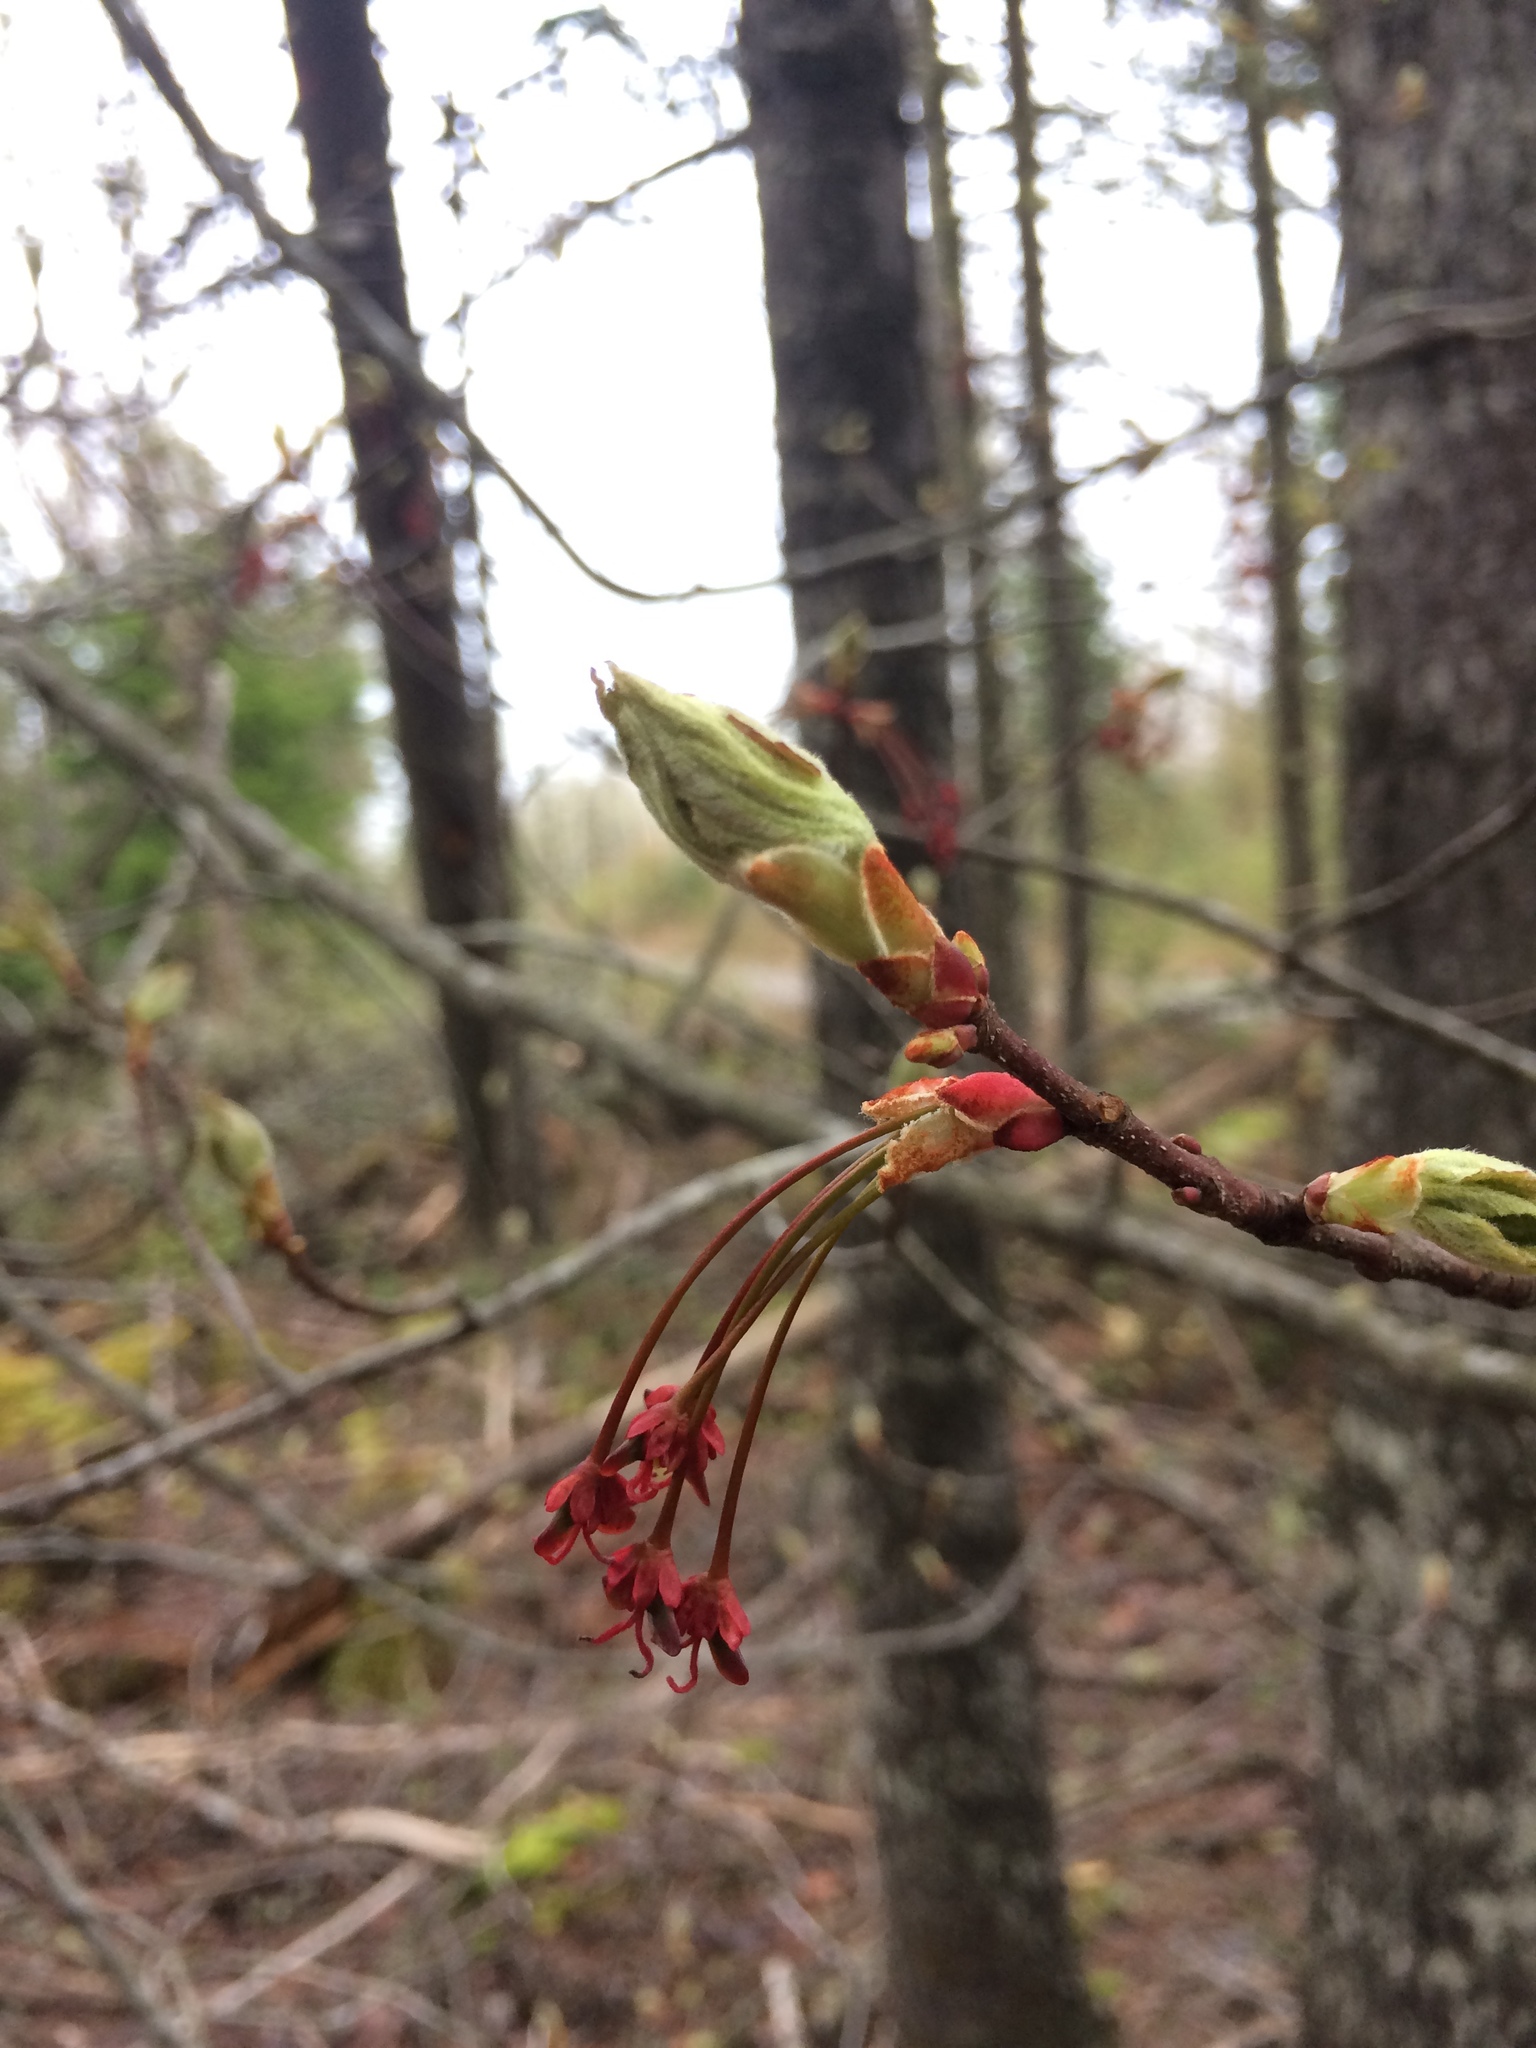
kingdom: Plantae
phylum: Tracheophyta
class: Magnoliopsida
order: Sapindales
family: Sapindaceae
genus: Acer
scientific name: Acer rubrum
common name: Red maple
